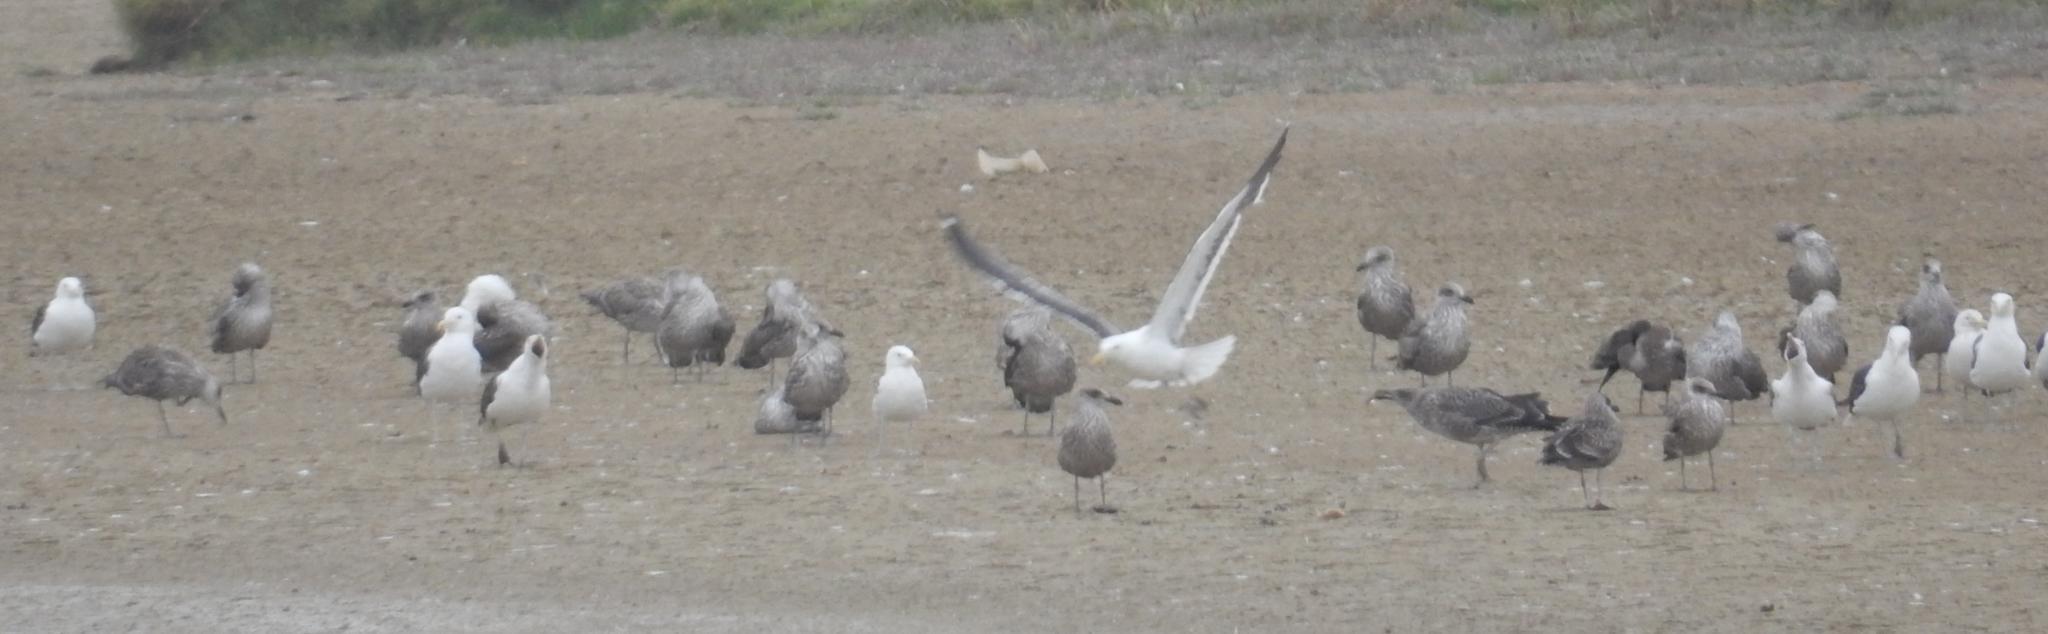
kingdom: Animalia
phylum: Chordata
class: Aves
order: Charadriiformes
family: Laridae
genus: Larus
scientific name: Larus dominicanus
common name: Kelp gull
